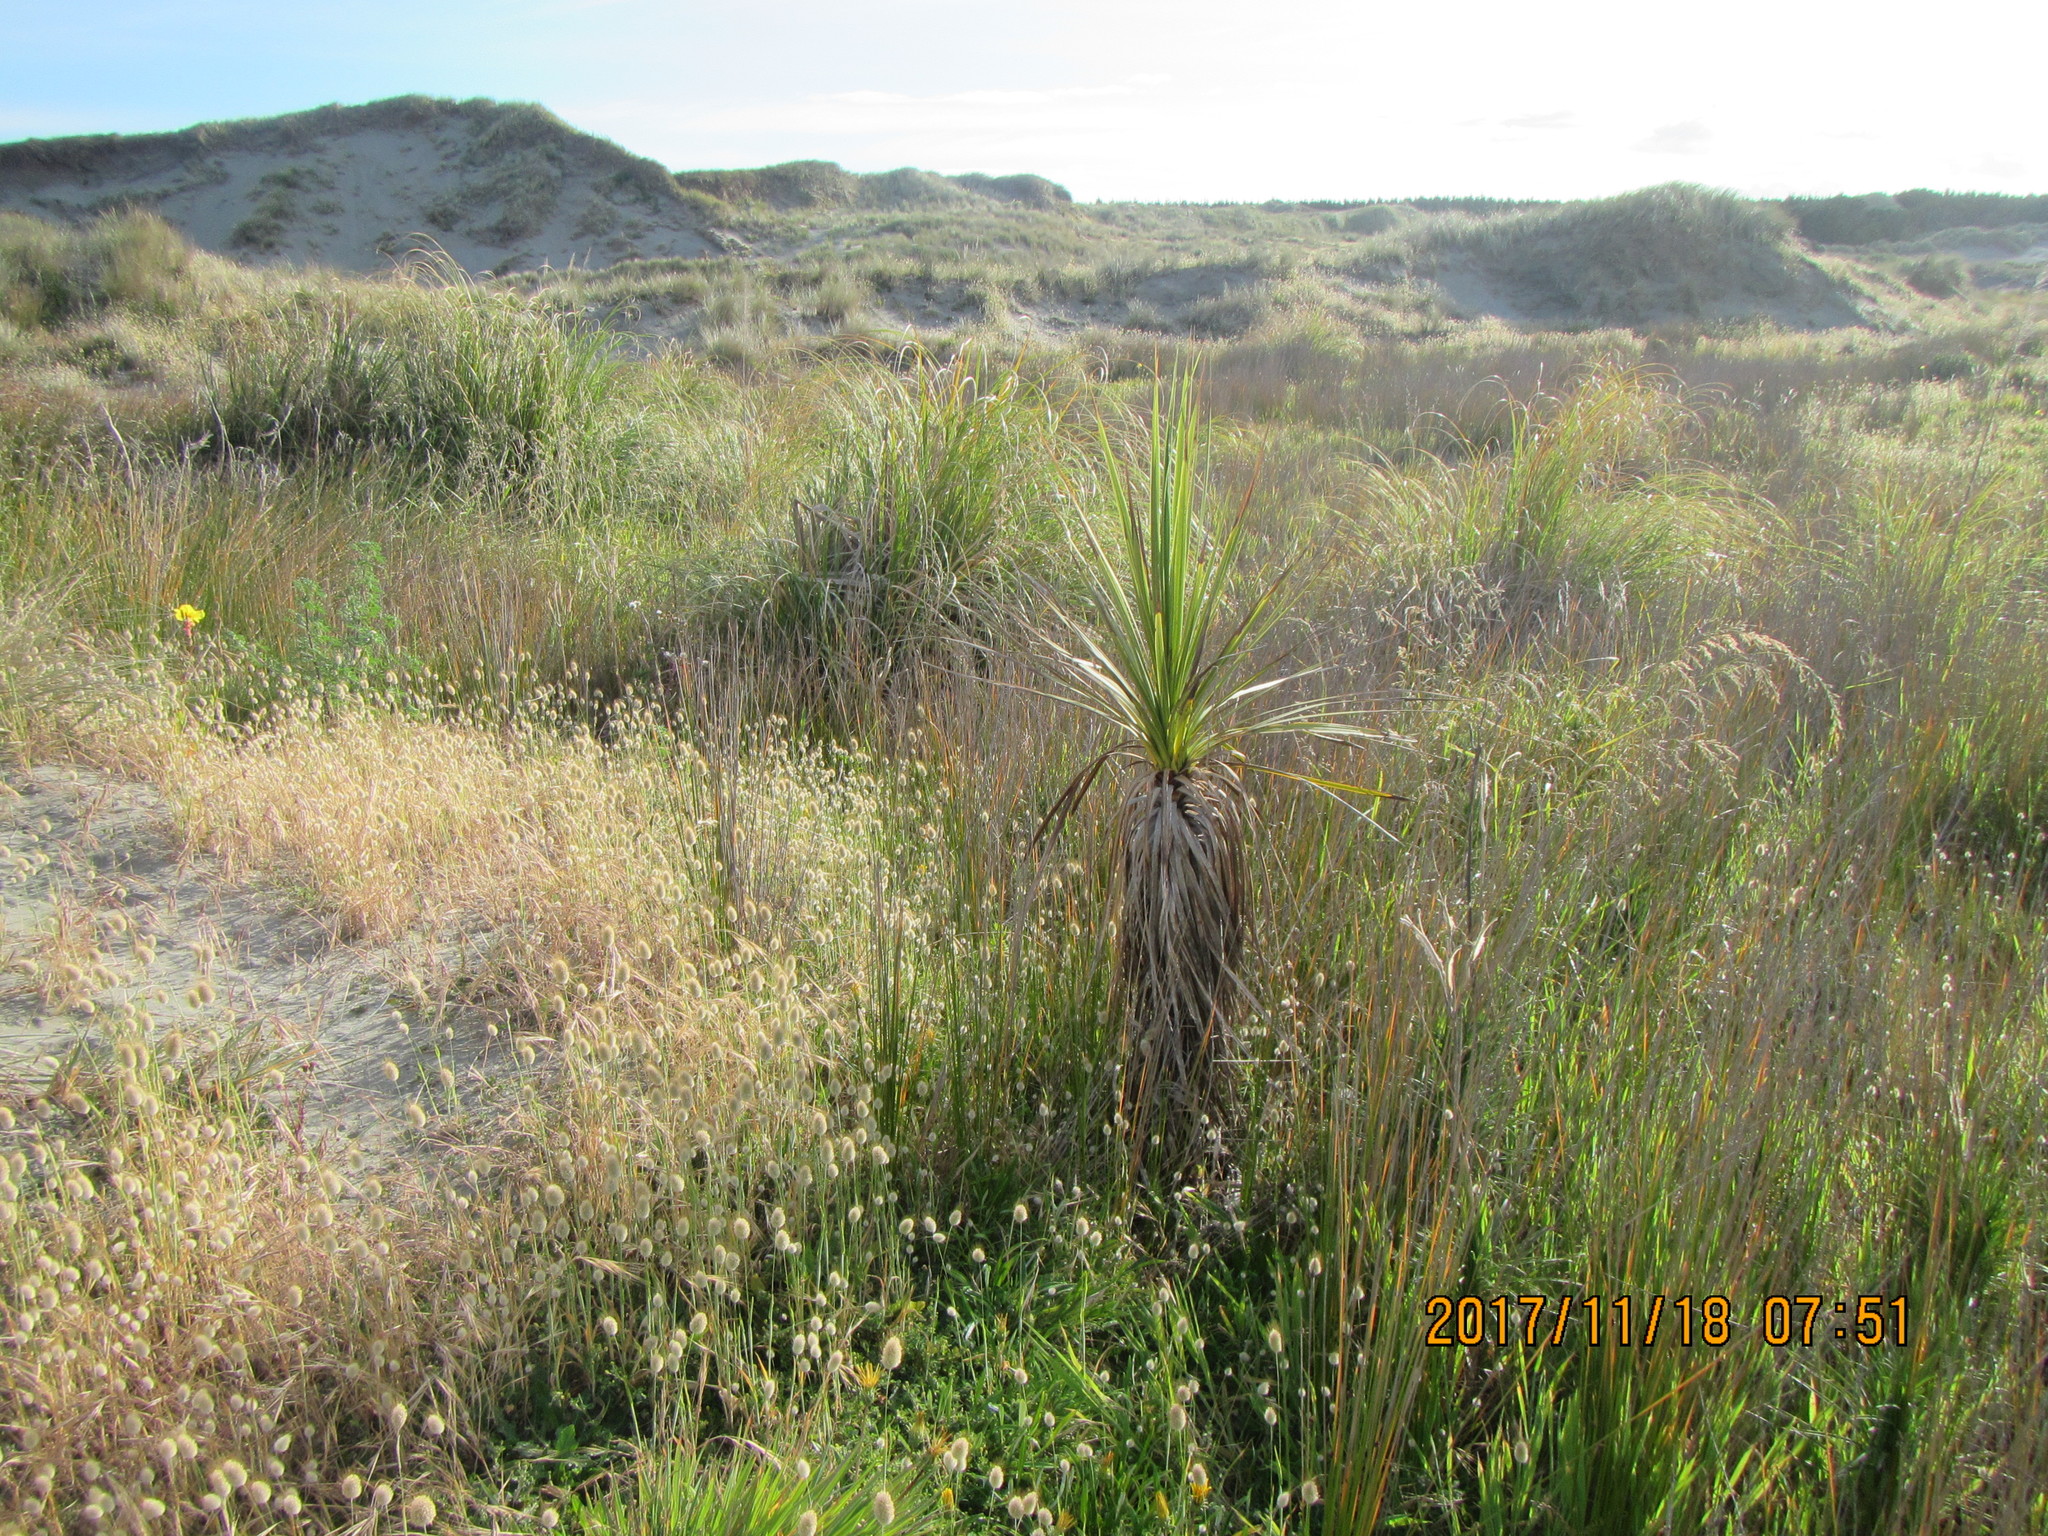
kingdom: Plantae
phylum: Tracheophyta
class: Liliopsida
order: Asparagales
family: Asparagaceae
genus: Cordyline
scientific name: Cordyline australis
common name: Cabbage-palm
